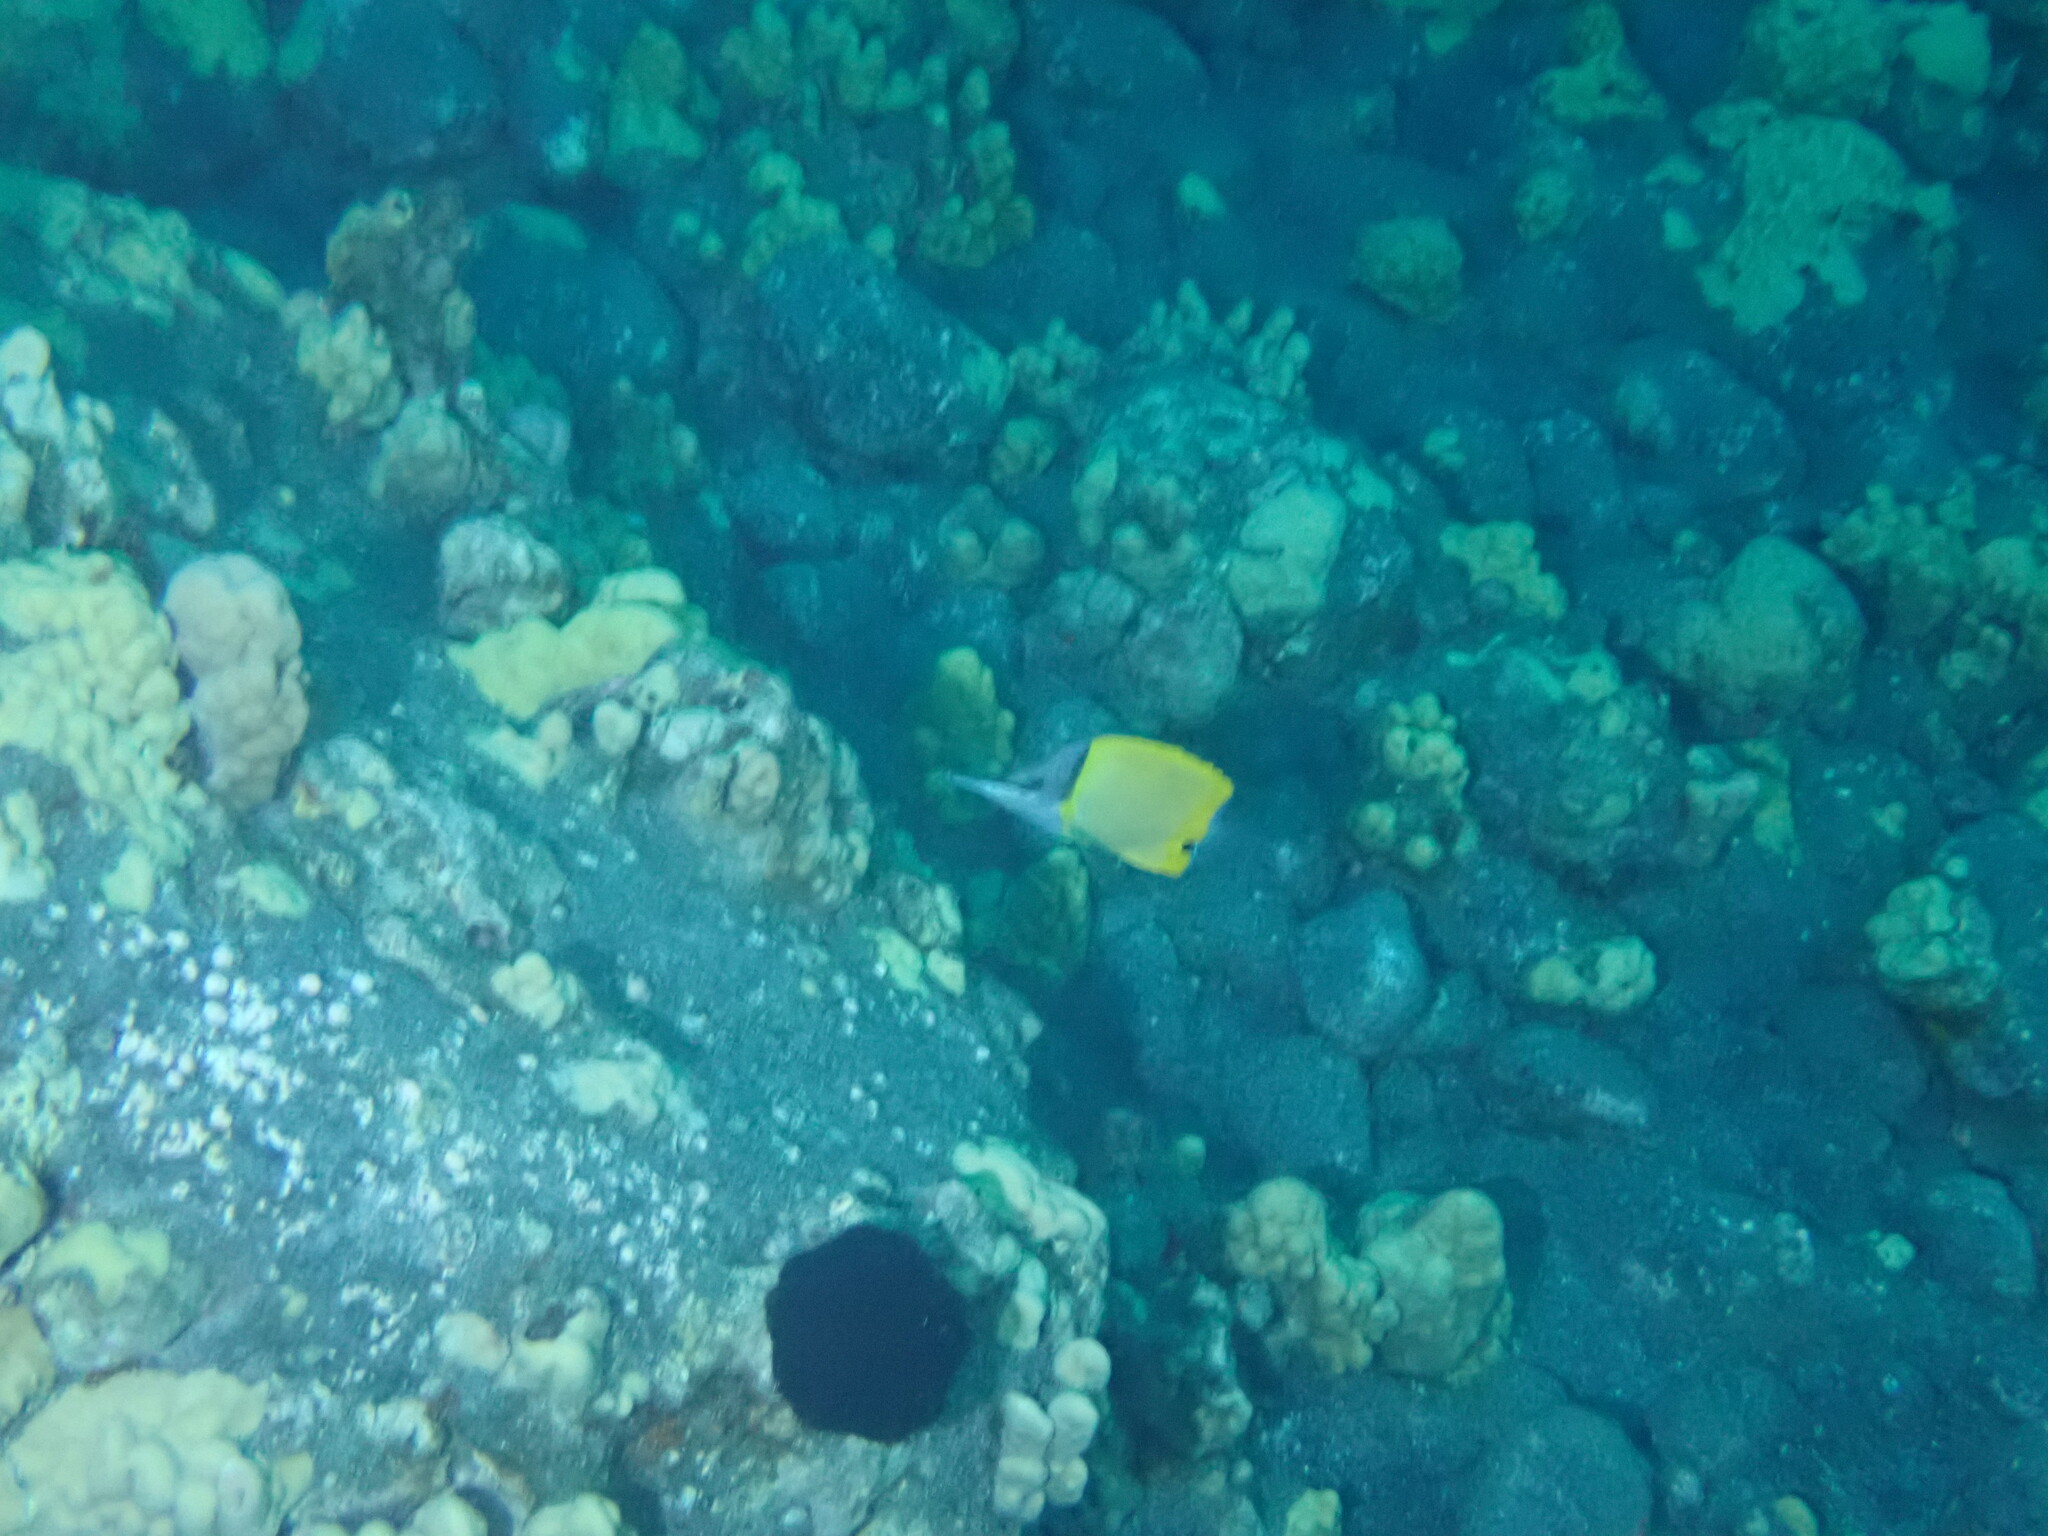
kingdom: Animalia
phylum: Chordata
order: Perciformes
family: Chaetodontidae
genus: Forcipiger
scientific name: Forcipiger flavissimus
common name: Forcepsfish
